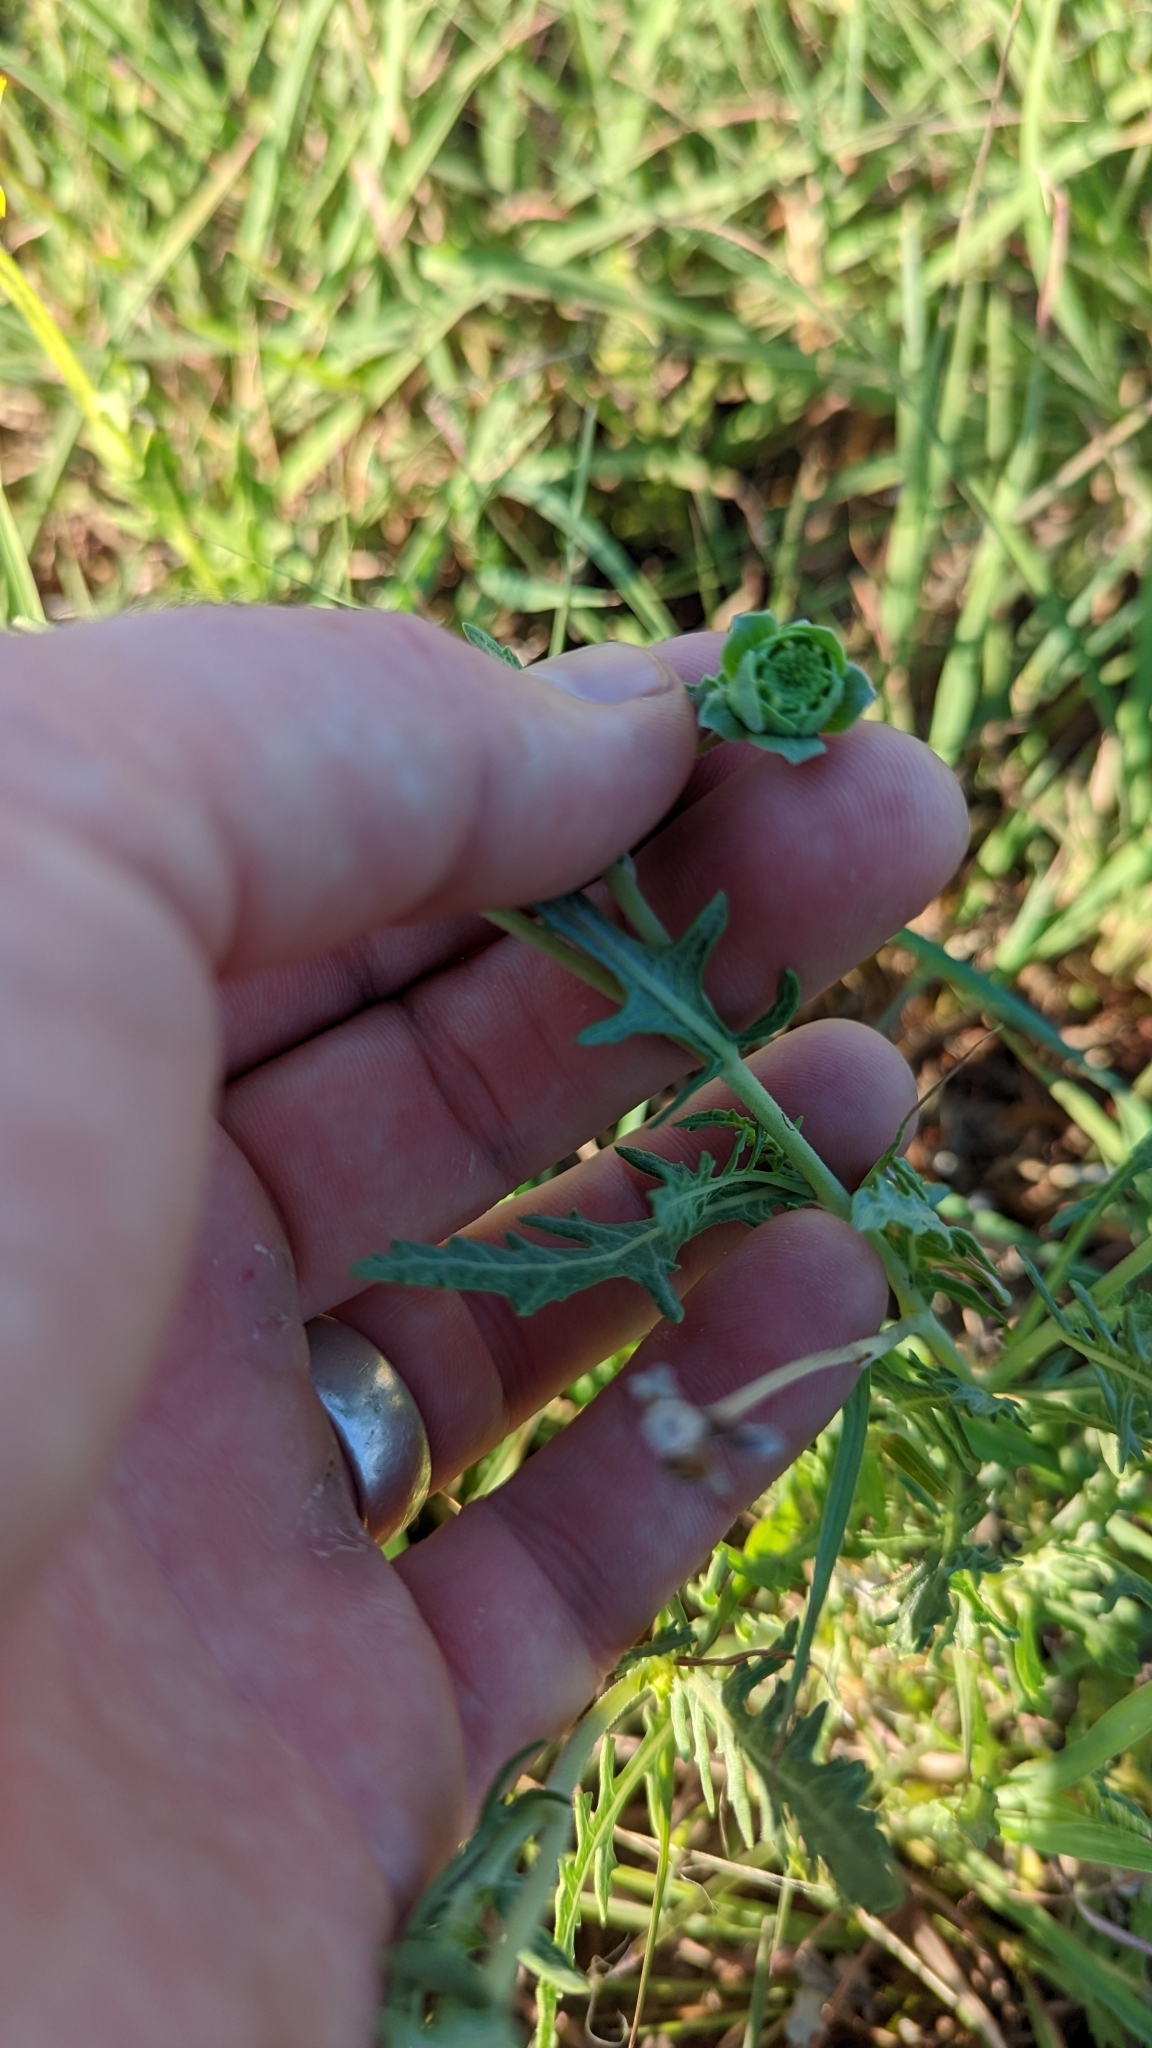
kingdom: Plantae
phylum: Tracheophyta
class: Magnoliopsida
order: Asterales
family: Asteraceae
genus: Berlandiera
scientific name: Berlandiera lyrata
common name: Chocolate-flower
